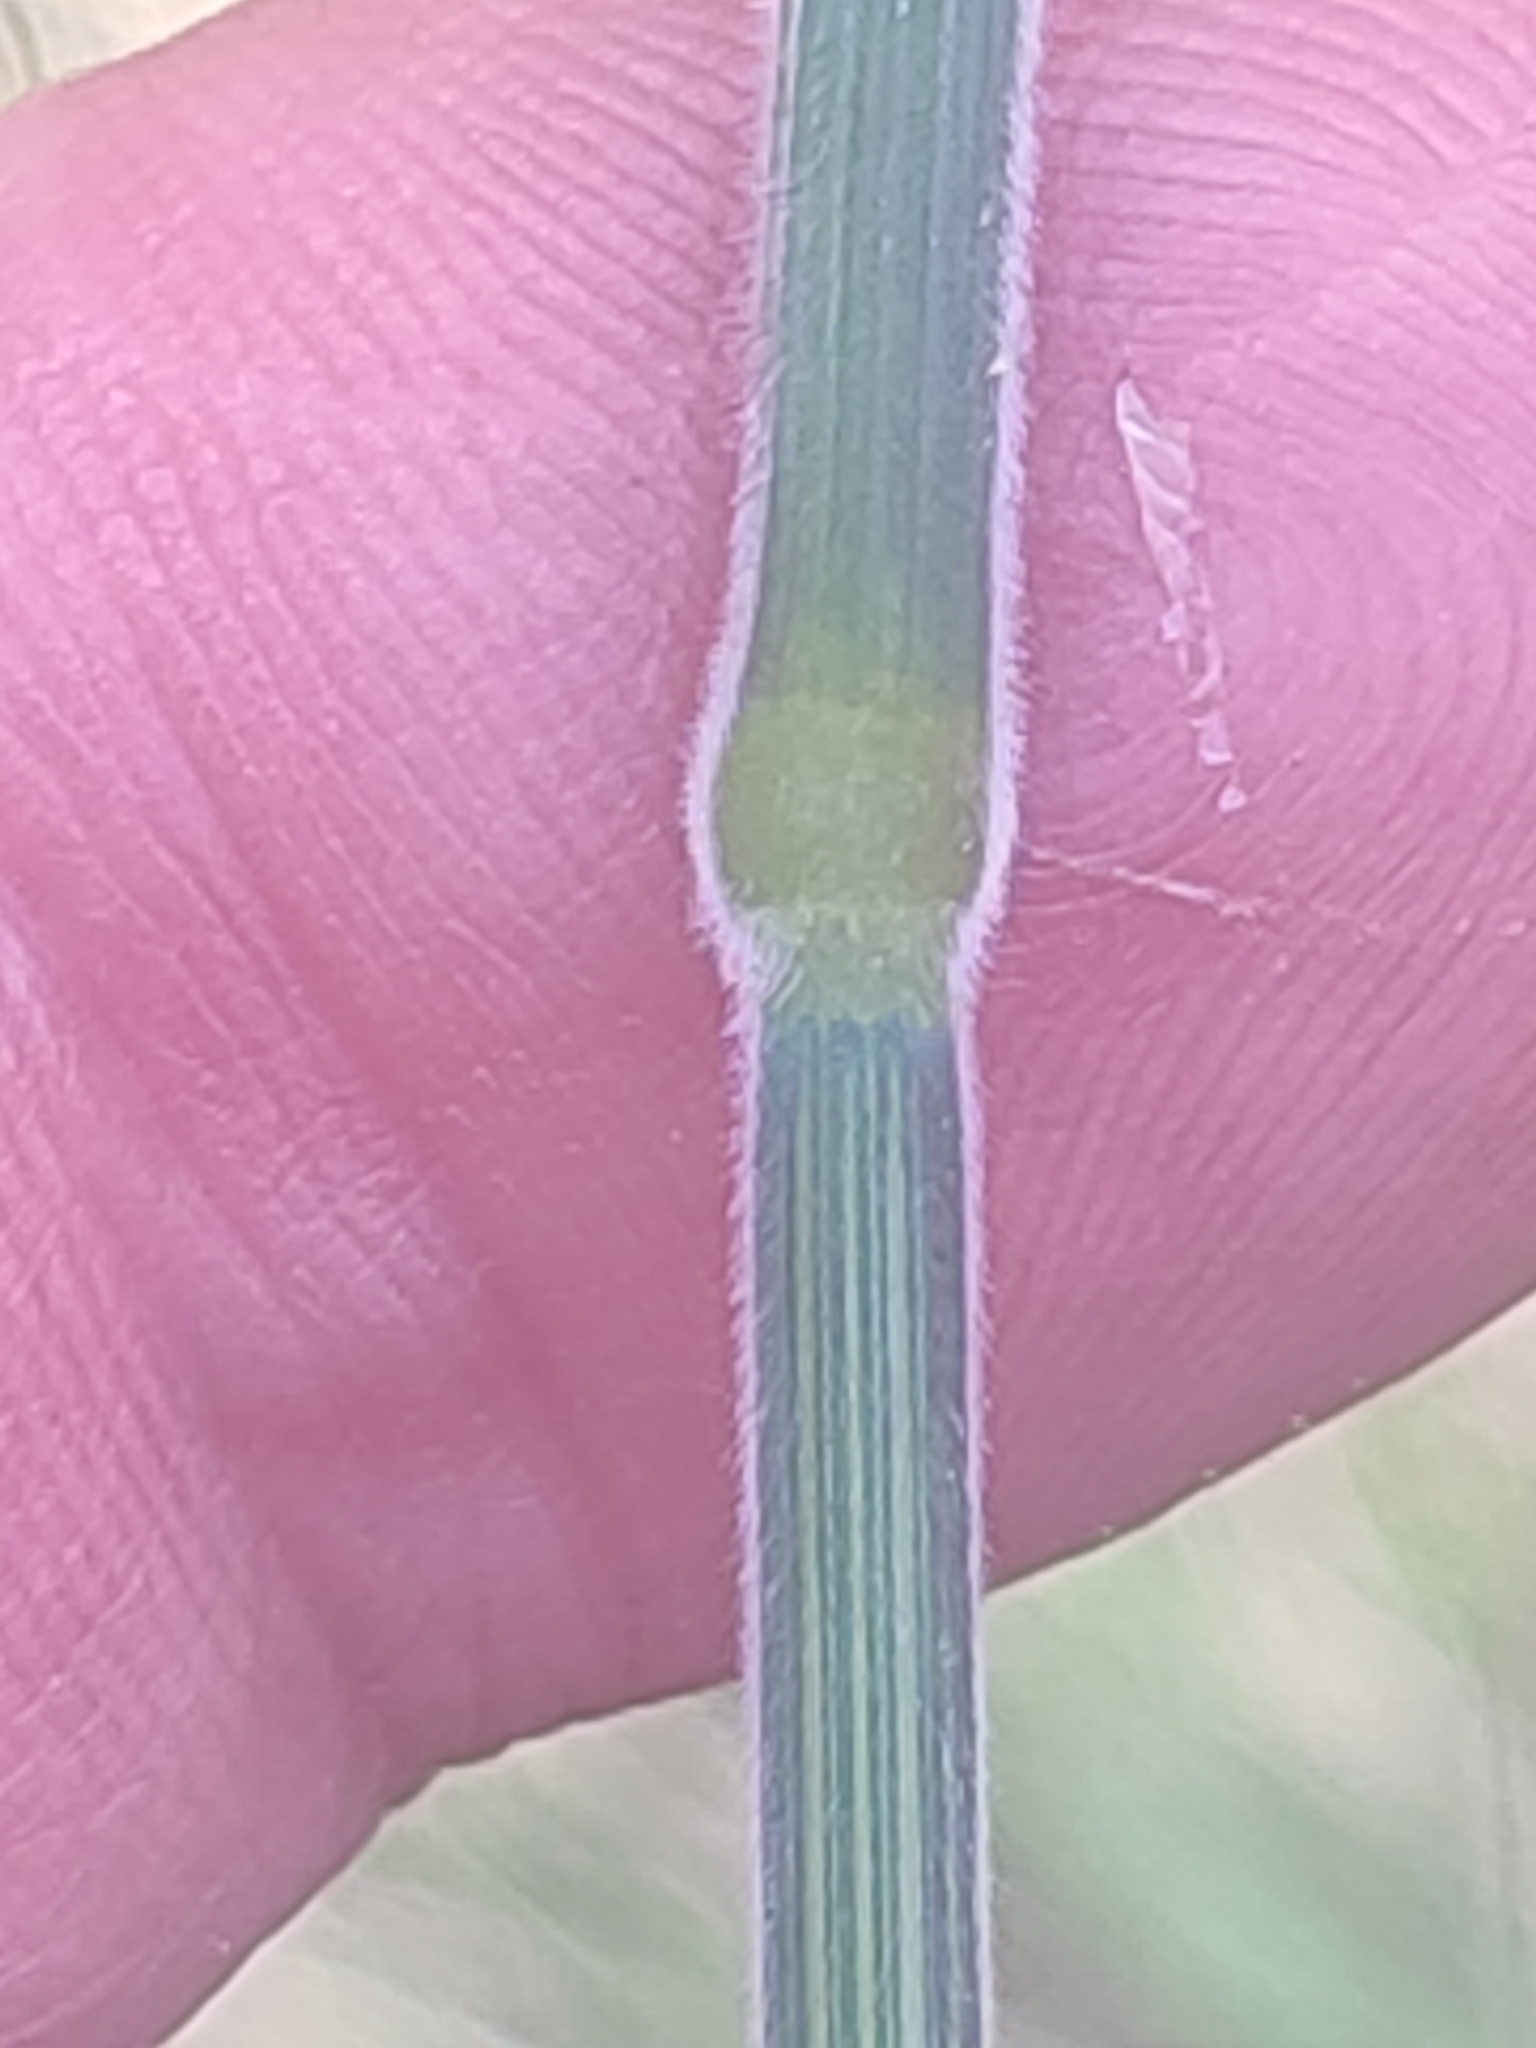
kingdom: Plantae
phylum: Tracheophyta
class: Liliopsida
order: Poales
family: Poaceae
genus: Holcus
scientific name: Holcus lanatus
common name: Yorkshire-fog
